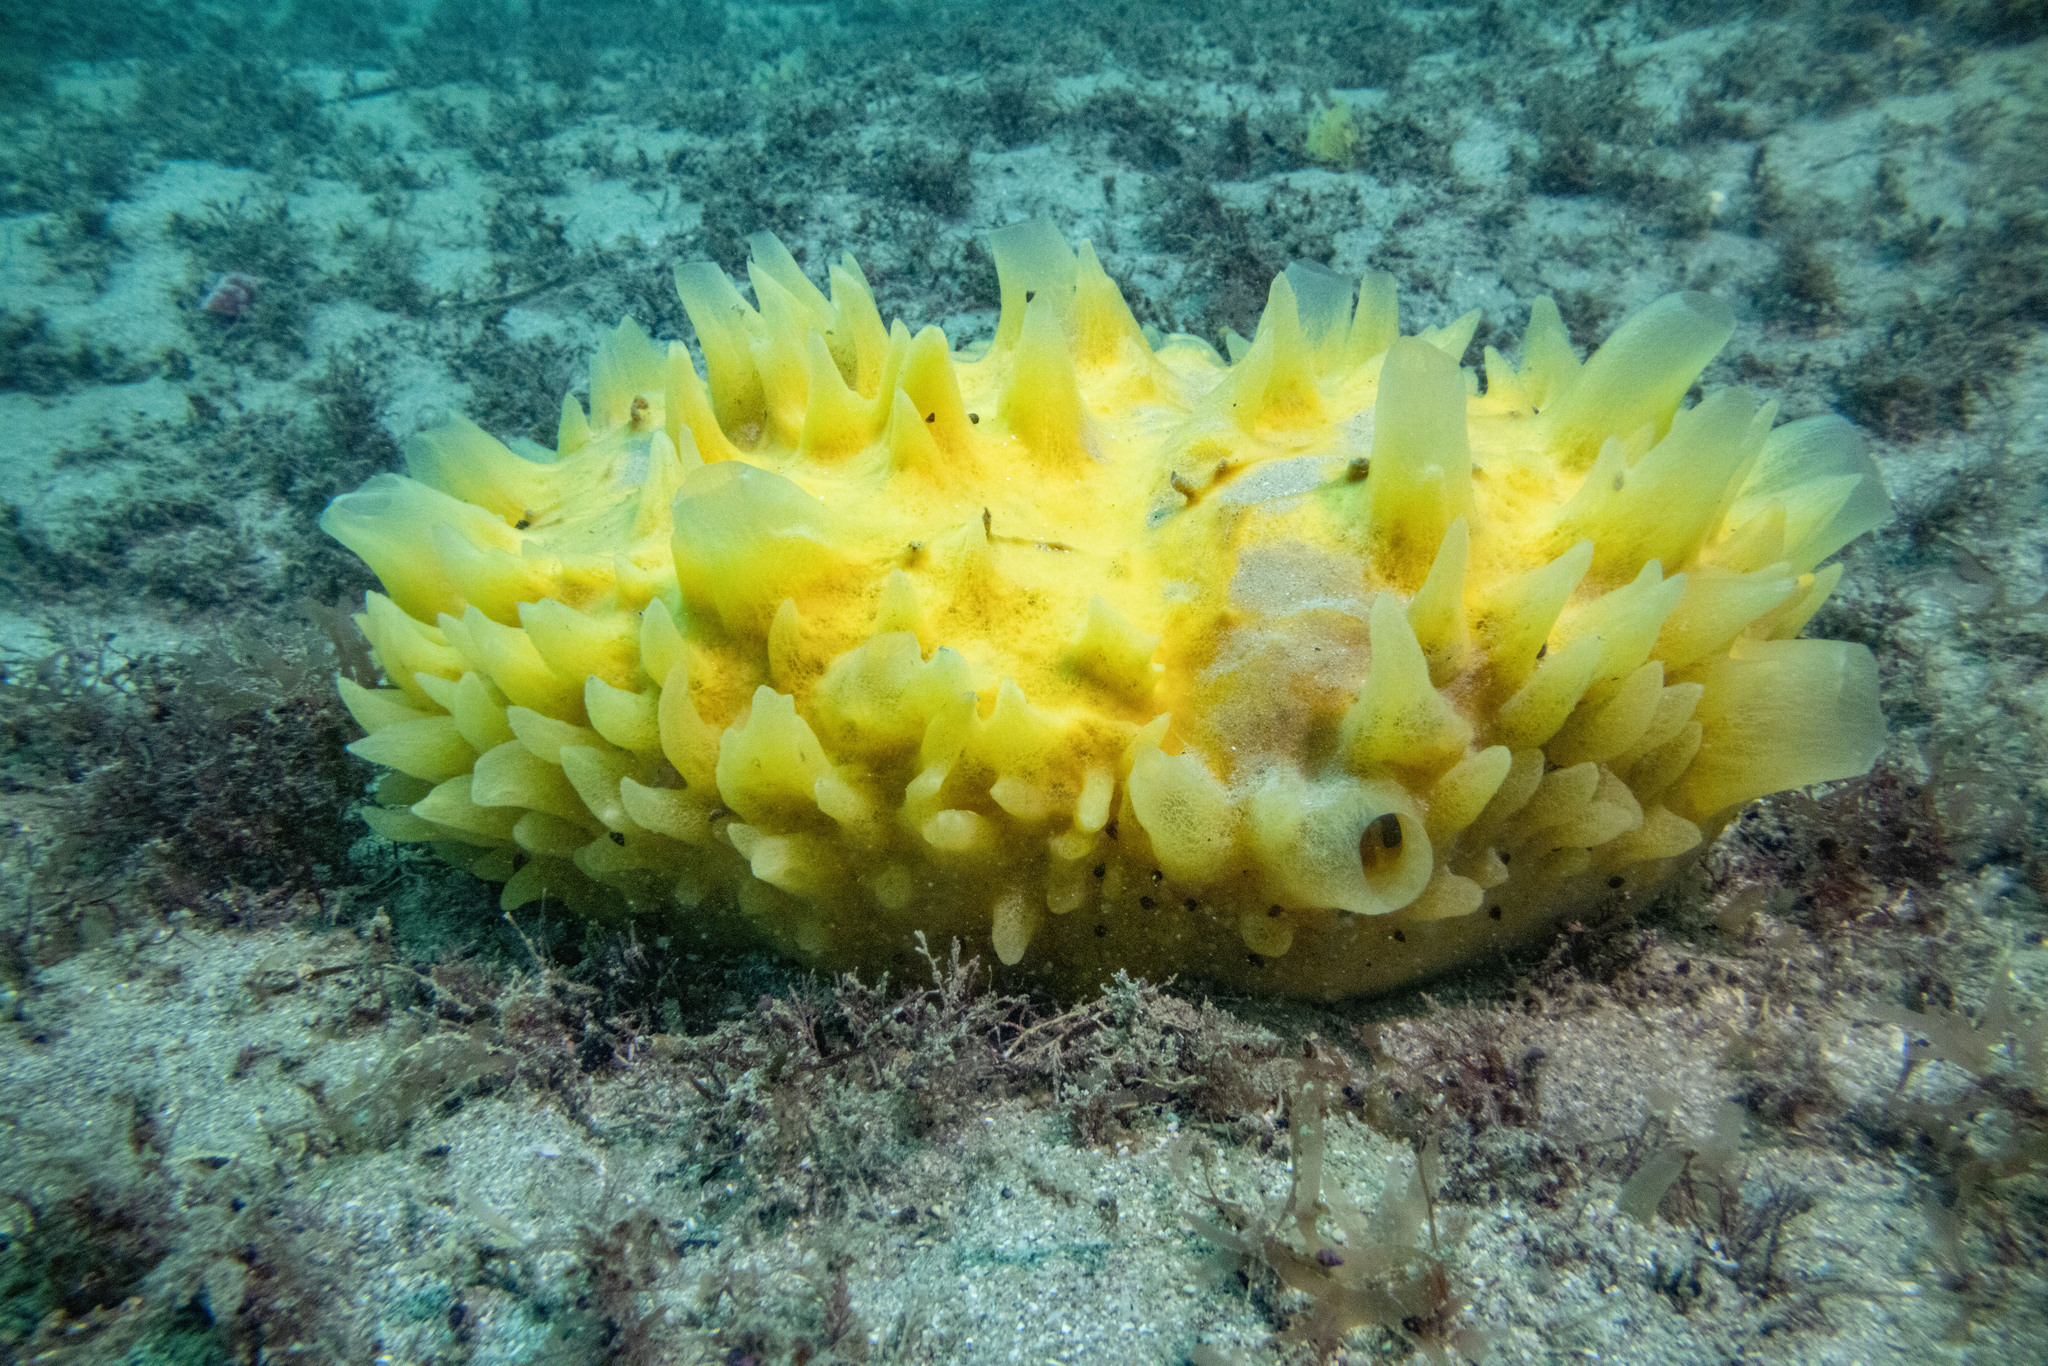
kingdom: Animalia
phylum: Porifera
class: Demospongiae
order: Polymastiida
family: Polymastiidae
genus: Polymastia
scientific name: Polymastia crocea
